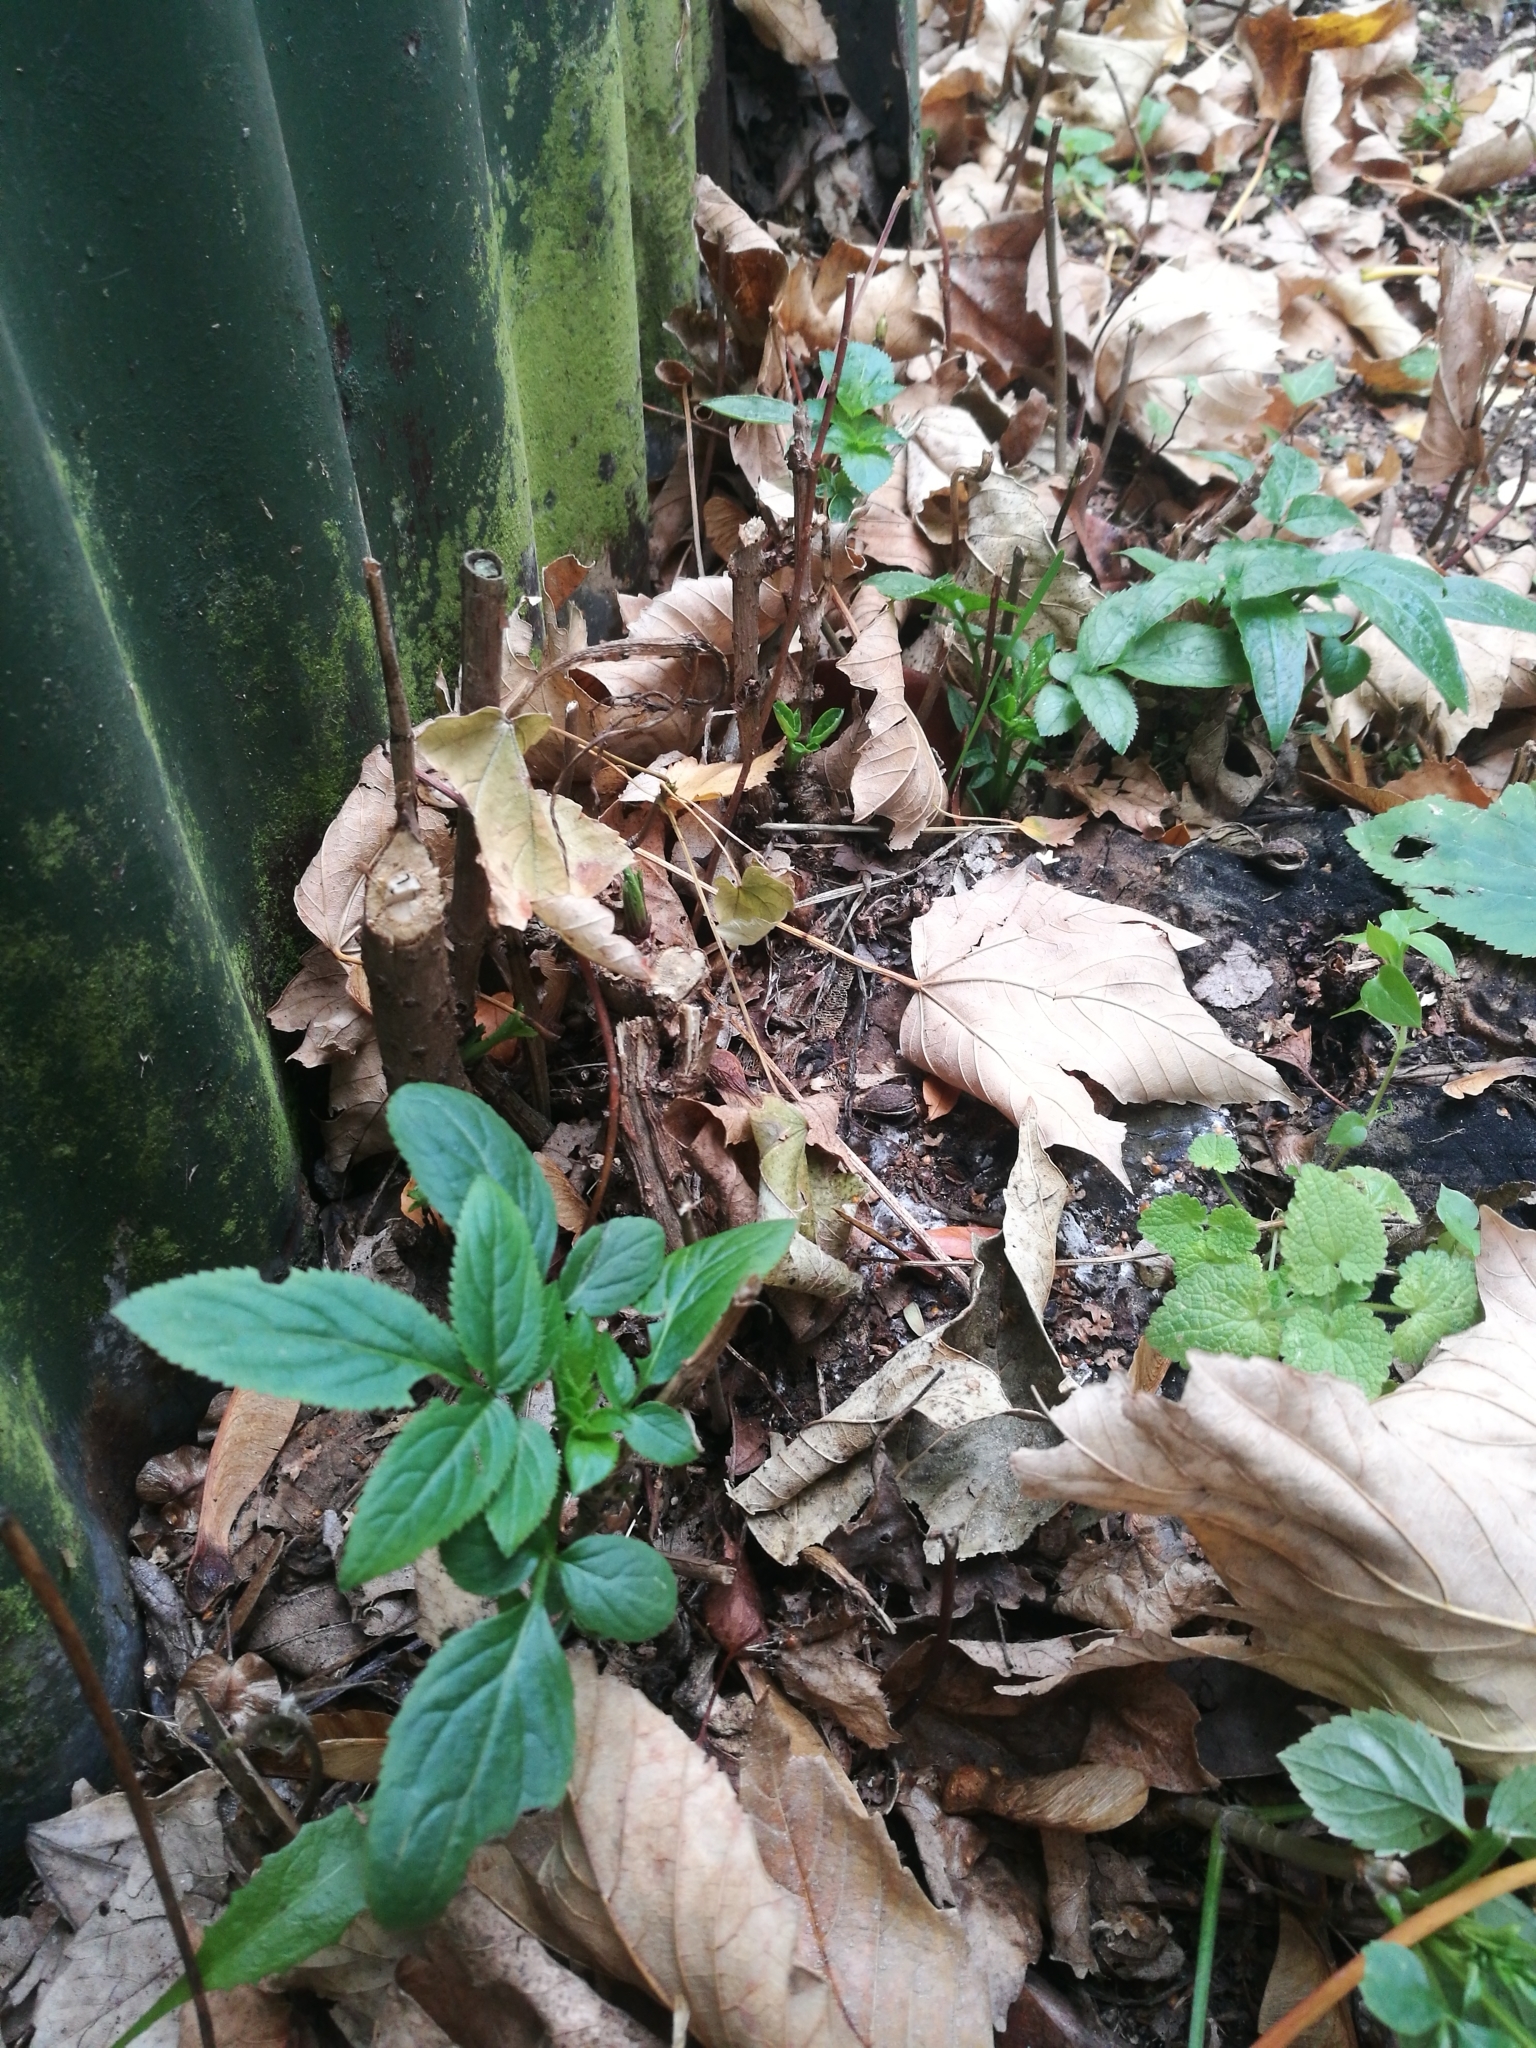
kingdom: Plantae
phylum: Tracheophyta
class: Magnoliopsida
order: Dipsacales
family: Viburnaceae
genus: Sambucus
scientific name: Sambucus nigra
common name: Elder
